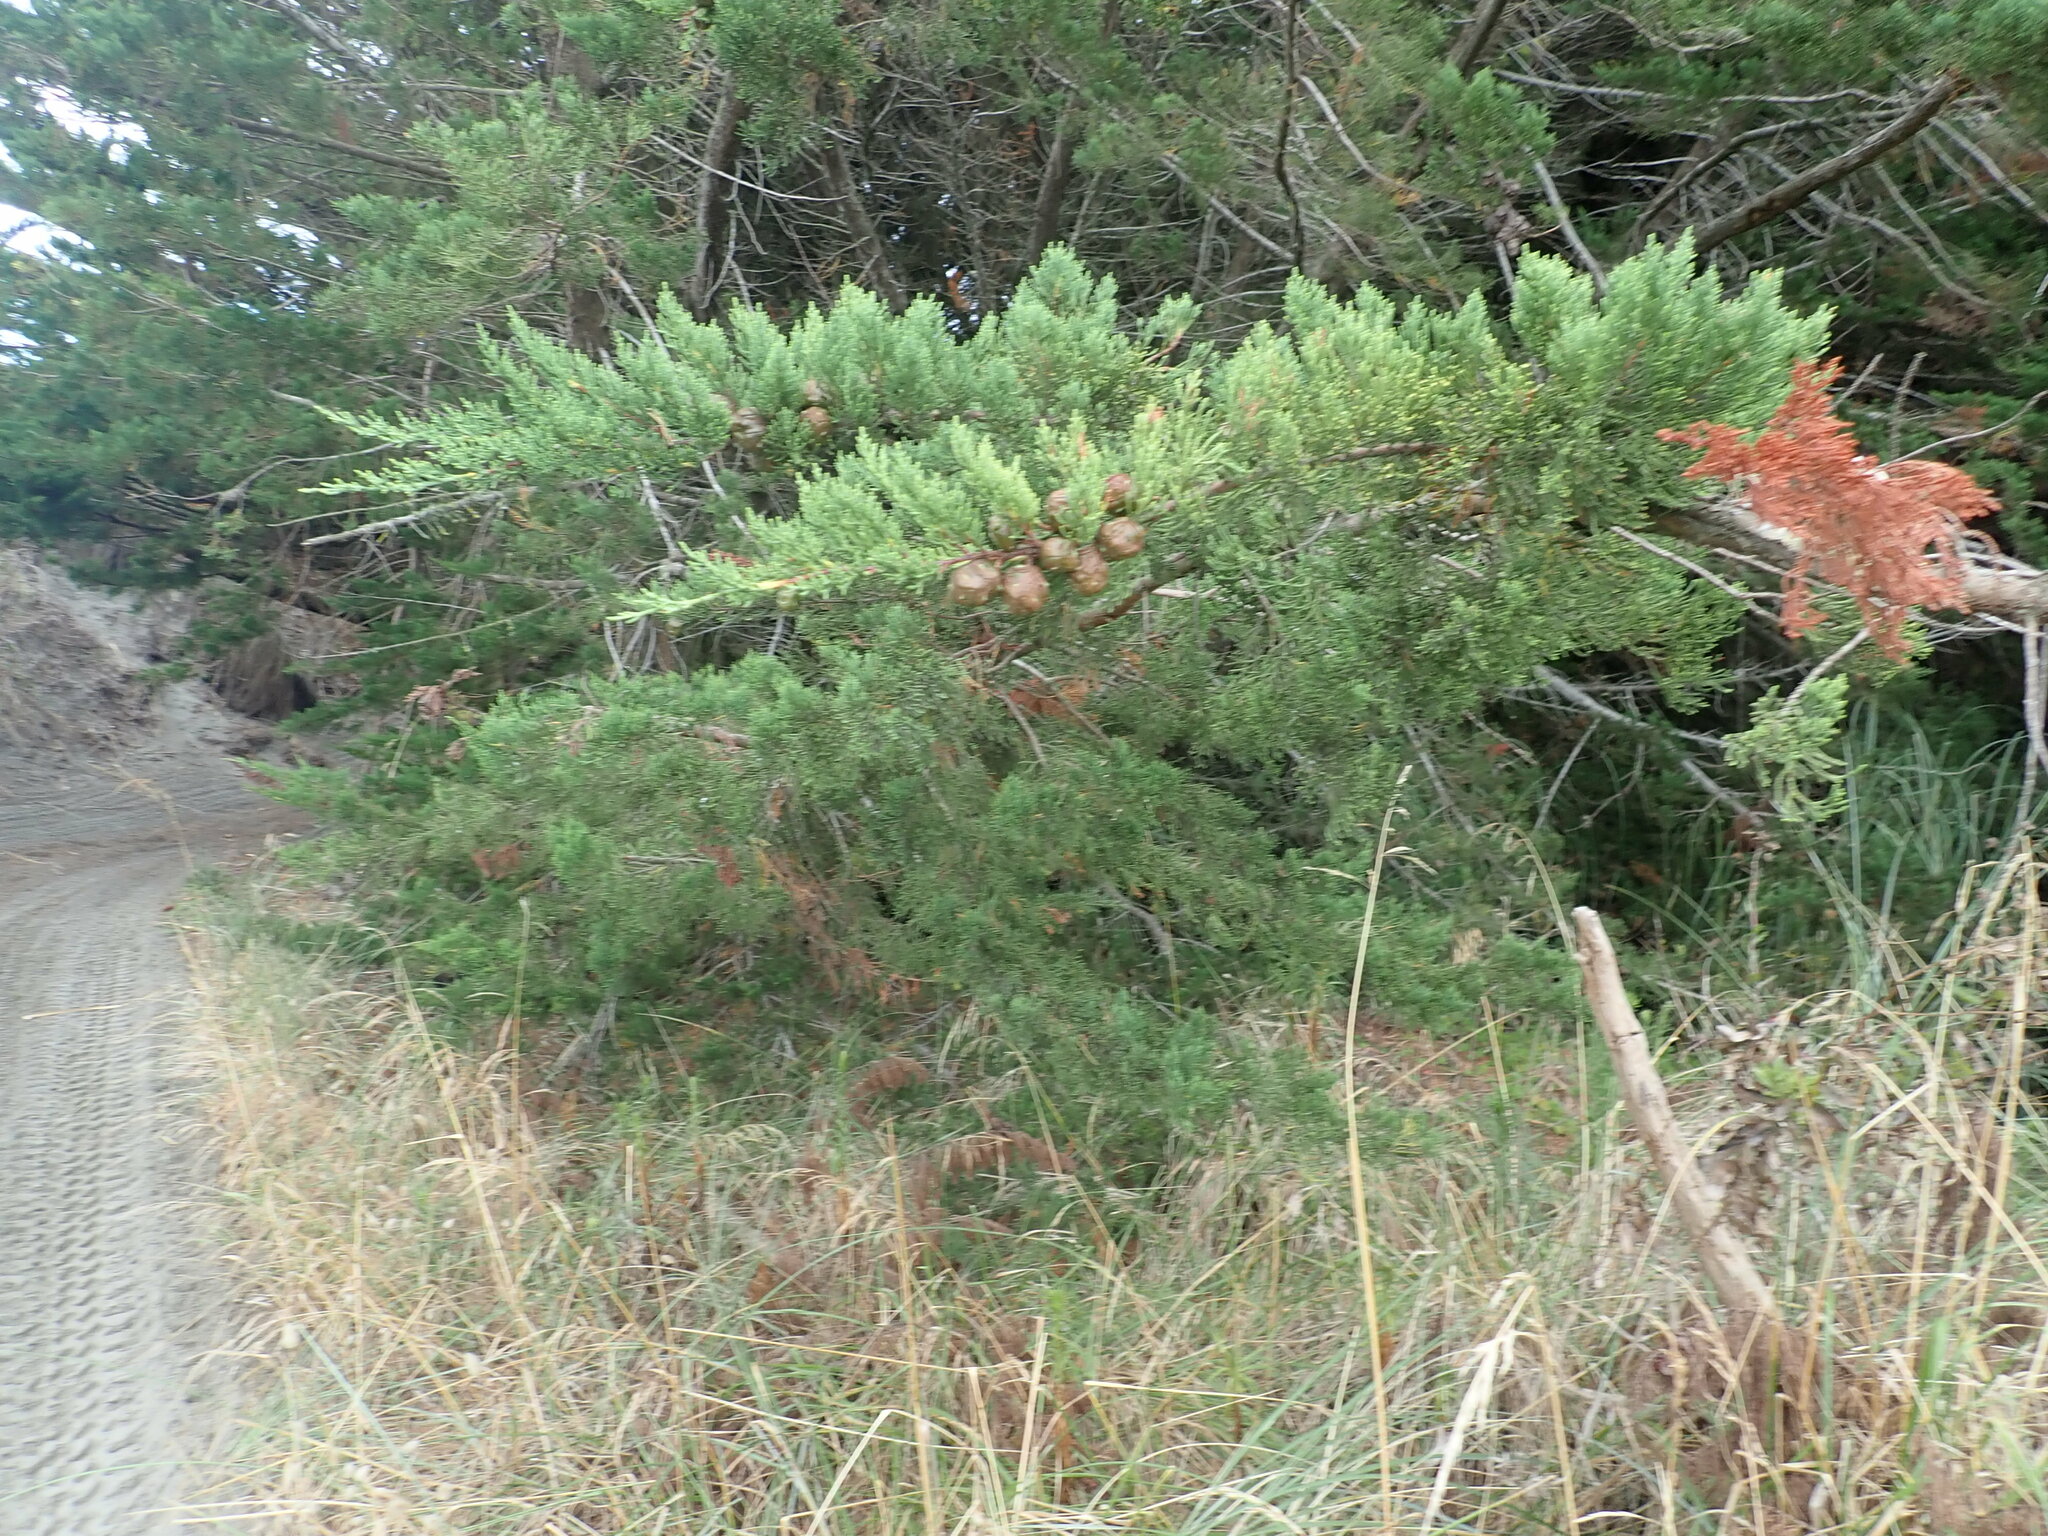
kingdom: Plantae
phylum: Tracheophyta
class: Pinopsida
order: Pinales
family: Cupressaceae
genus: Cupressus
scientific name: Cupressus macrocarpa
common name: Monterey cypress
